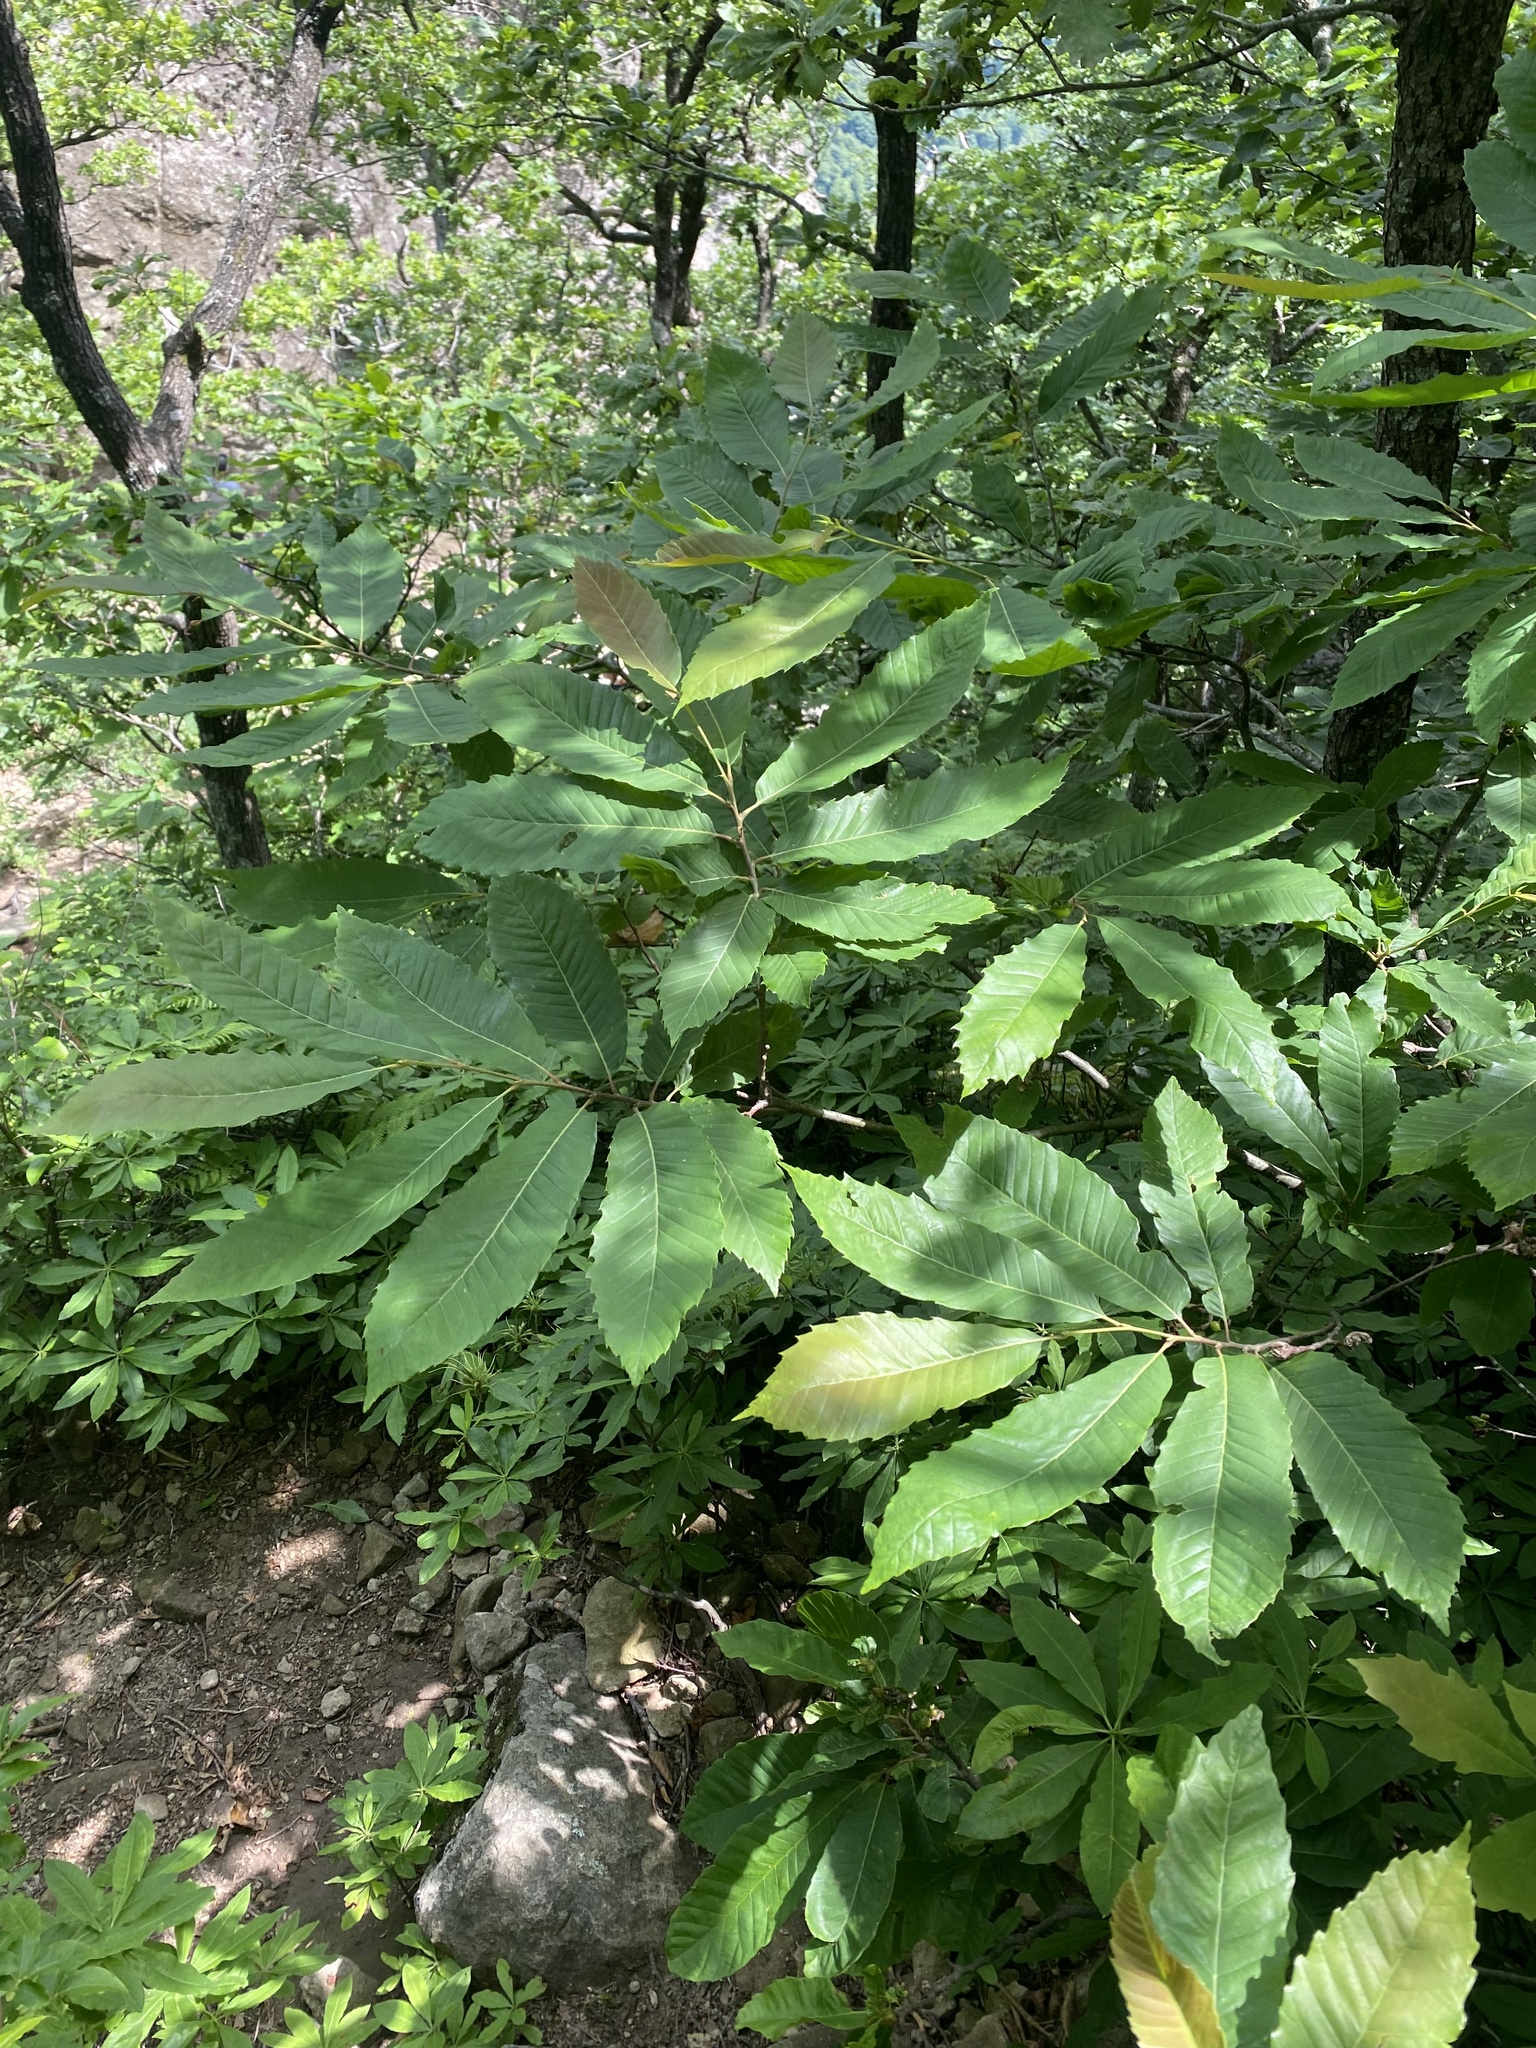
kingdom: Plantae
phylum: Tracheophyta
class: Magnoliopsida
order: Fagales
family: Fagaceae
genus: Castanea
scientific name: Castanea sativa
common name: Sweet chestnut
